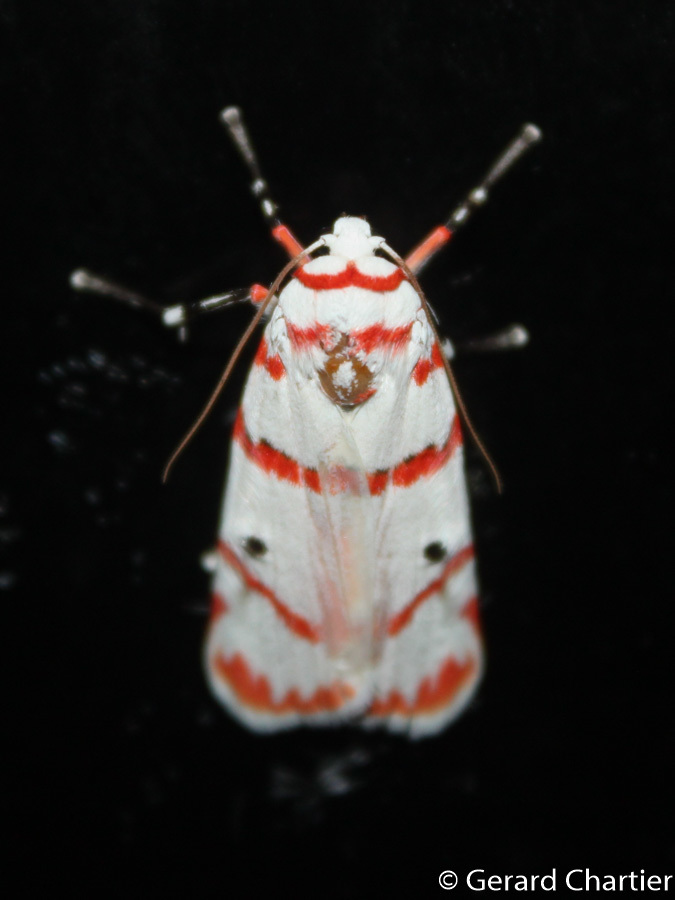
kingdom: Animalia
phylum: Arthropoda
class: Insecta
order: Lepidoptera
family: Erebidae
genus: Cyana
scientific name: Cyana perornata
